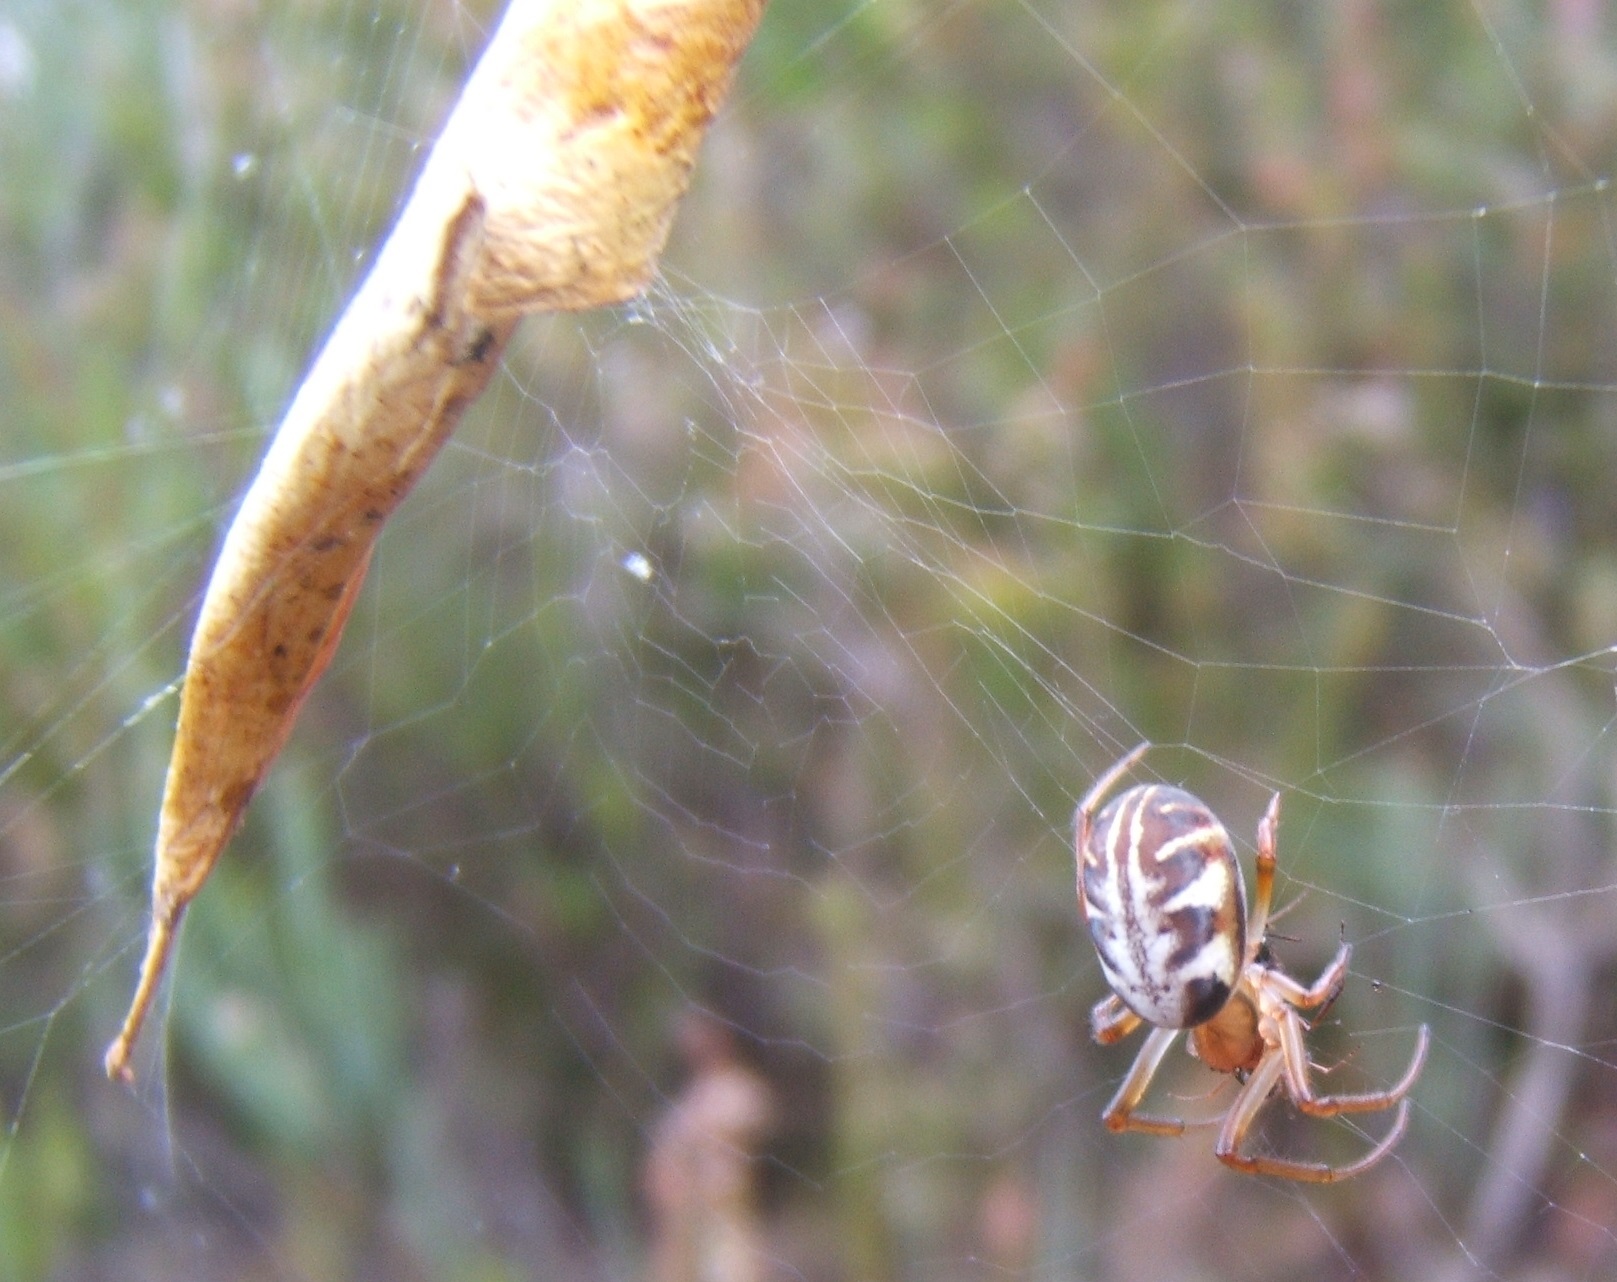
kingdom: Animalia
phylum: Arthropoda
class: Arachnida
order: Araneae
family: Araneidae
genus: Phonognatha
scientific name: Phonognatha graeffei
